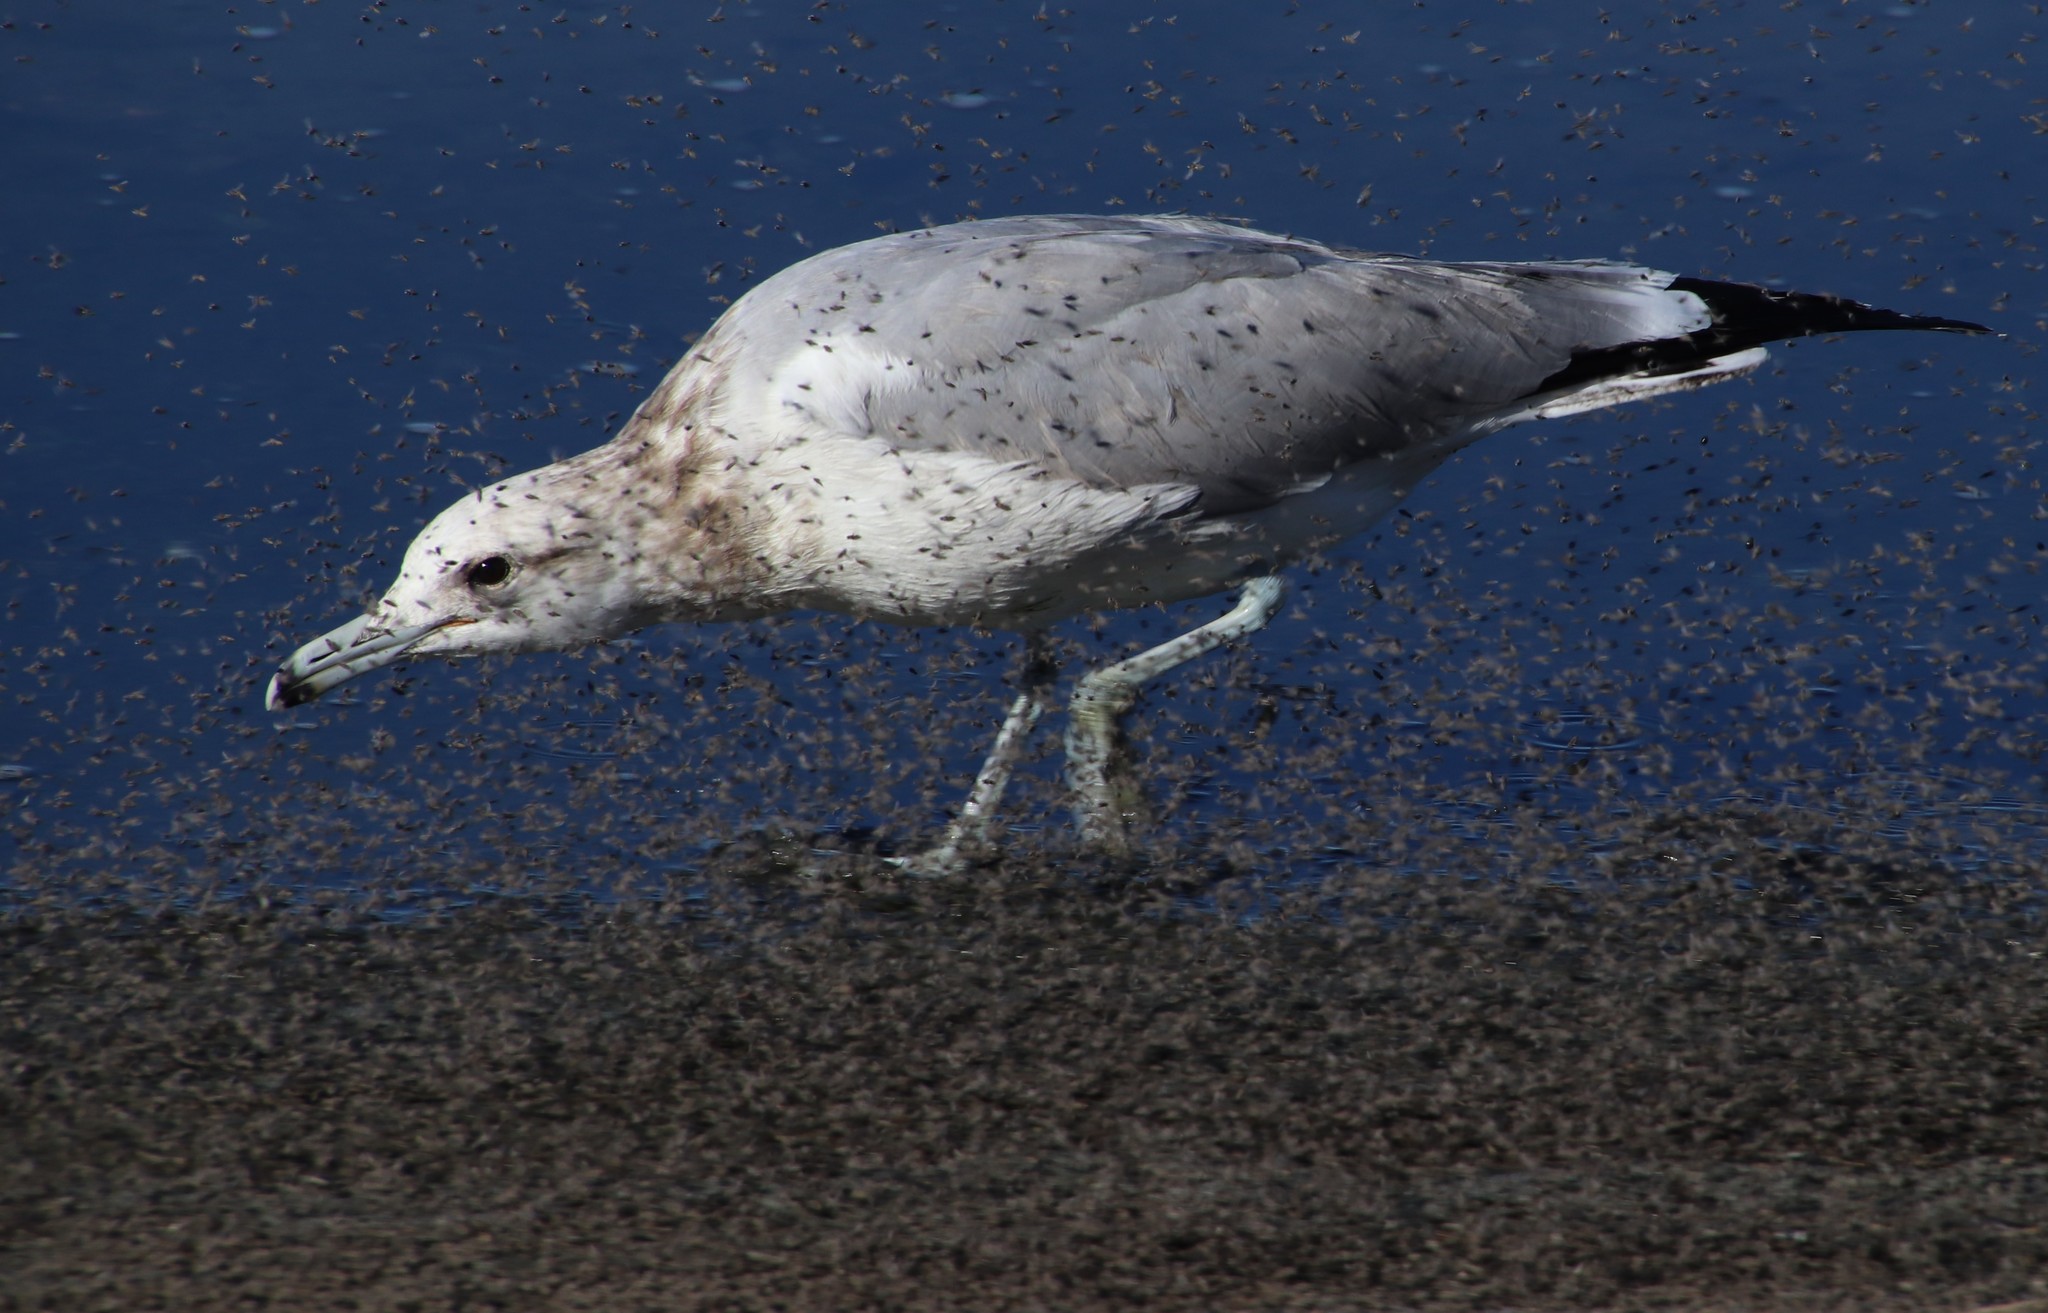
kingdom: Animalia
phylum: Chordata
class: Aves
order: Charadriiformes
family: Laridae
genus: Larus
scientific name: Larus californicus
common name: California gull
